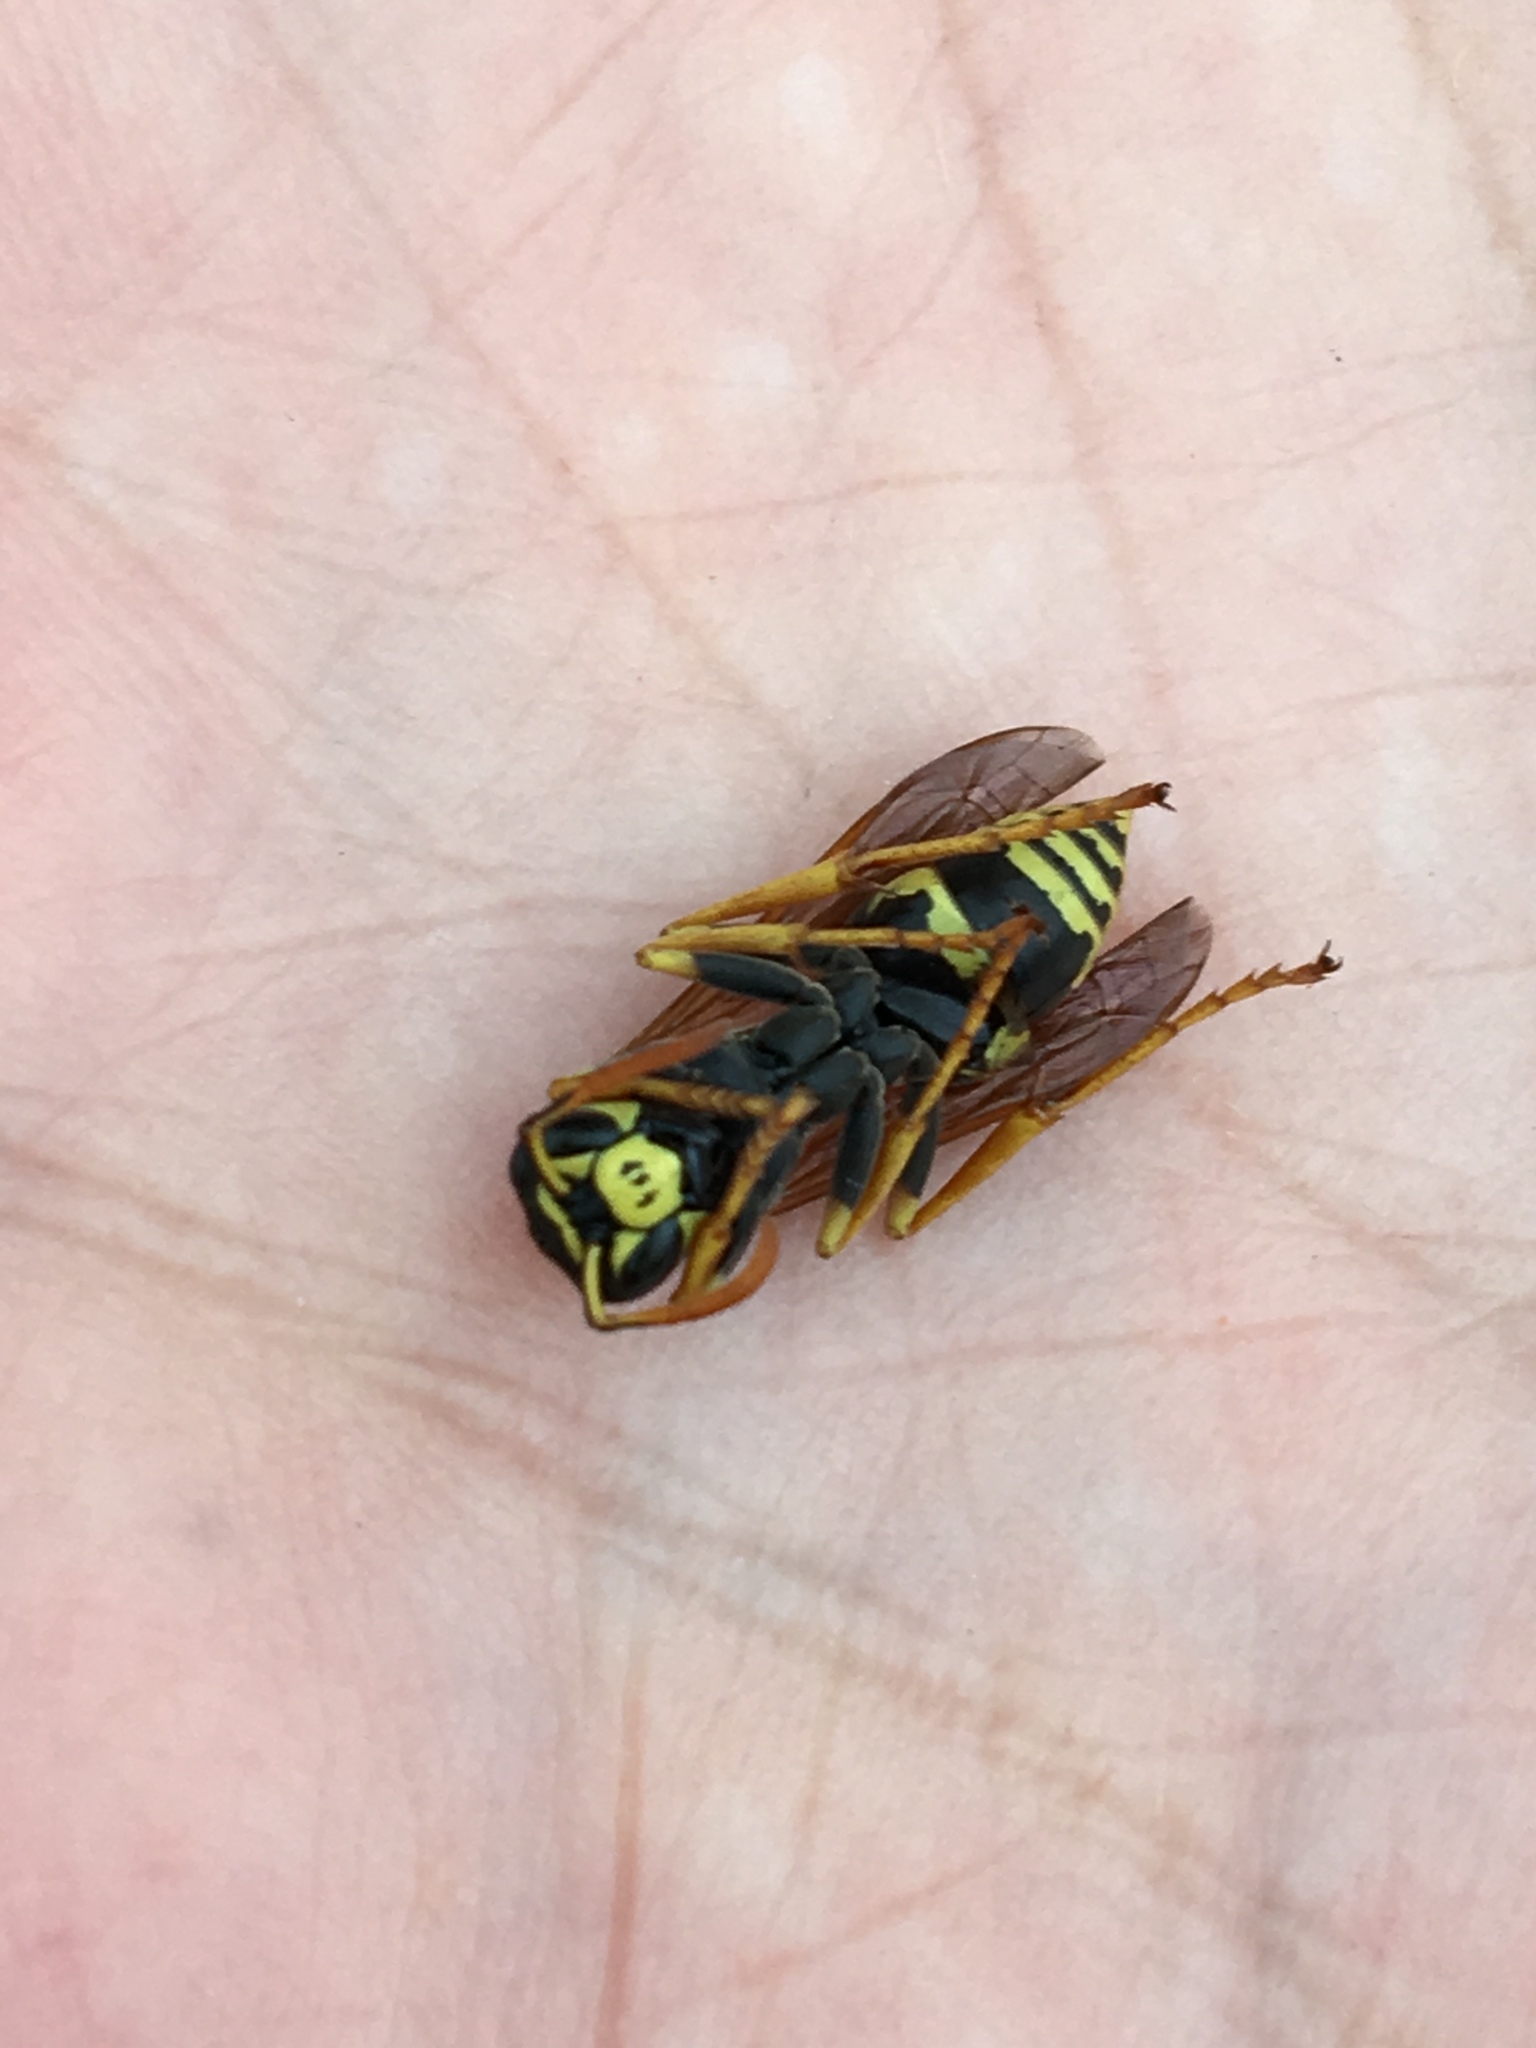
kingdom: Animalia
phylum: Arthropoda
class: Insecta
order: Hymenoptera
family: Eumenidae
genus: Polistes
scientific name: Polistes dominula
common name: Paper wasp
